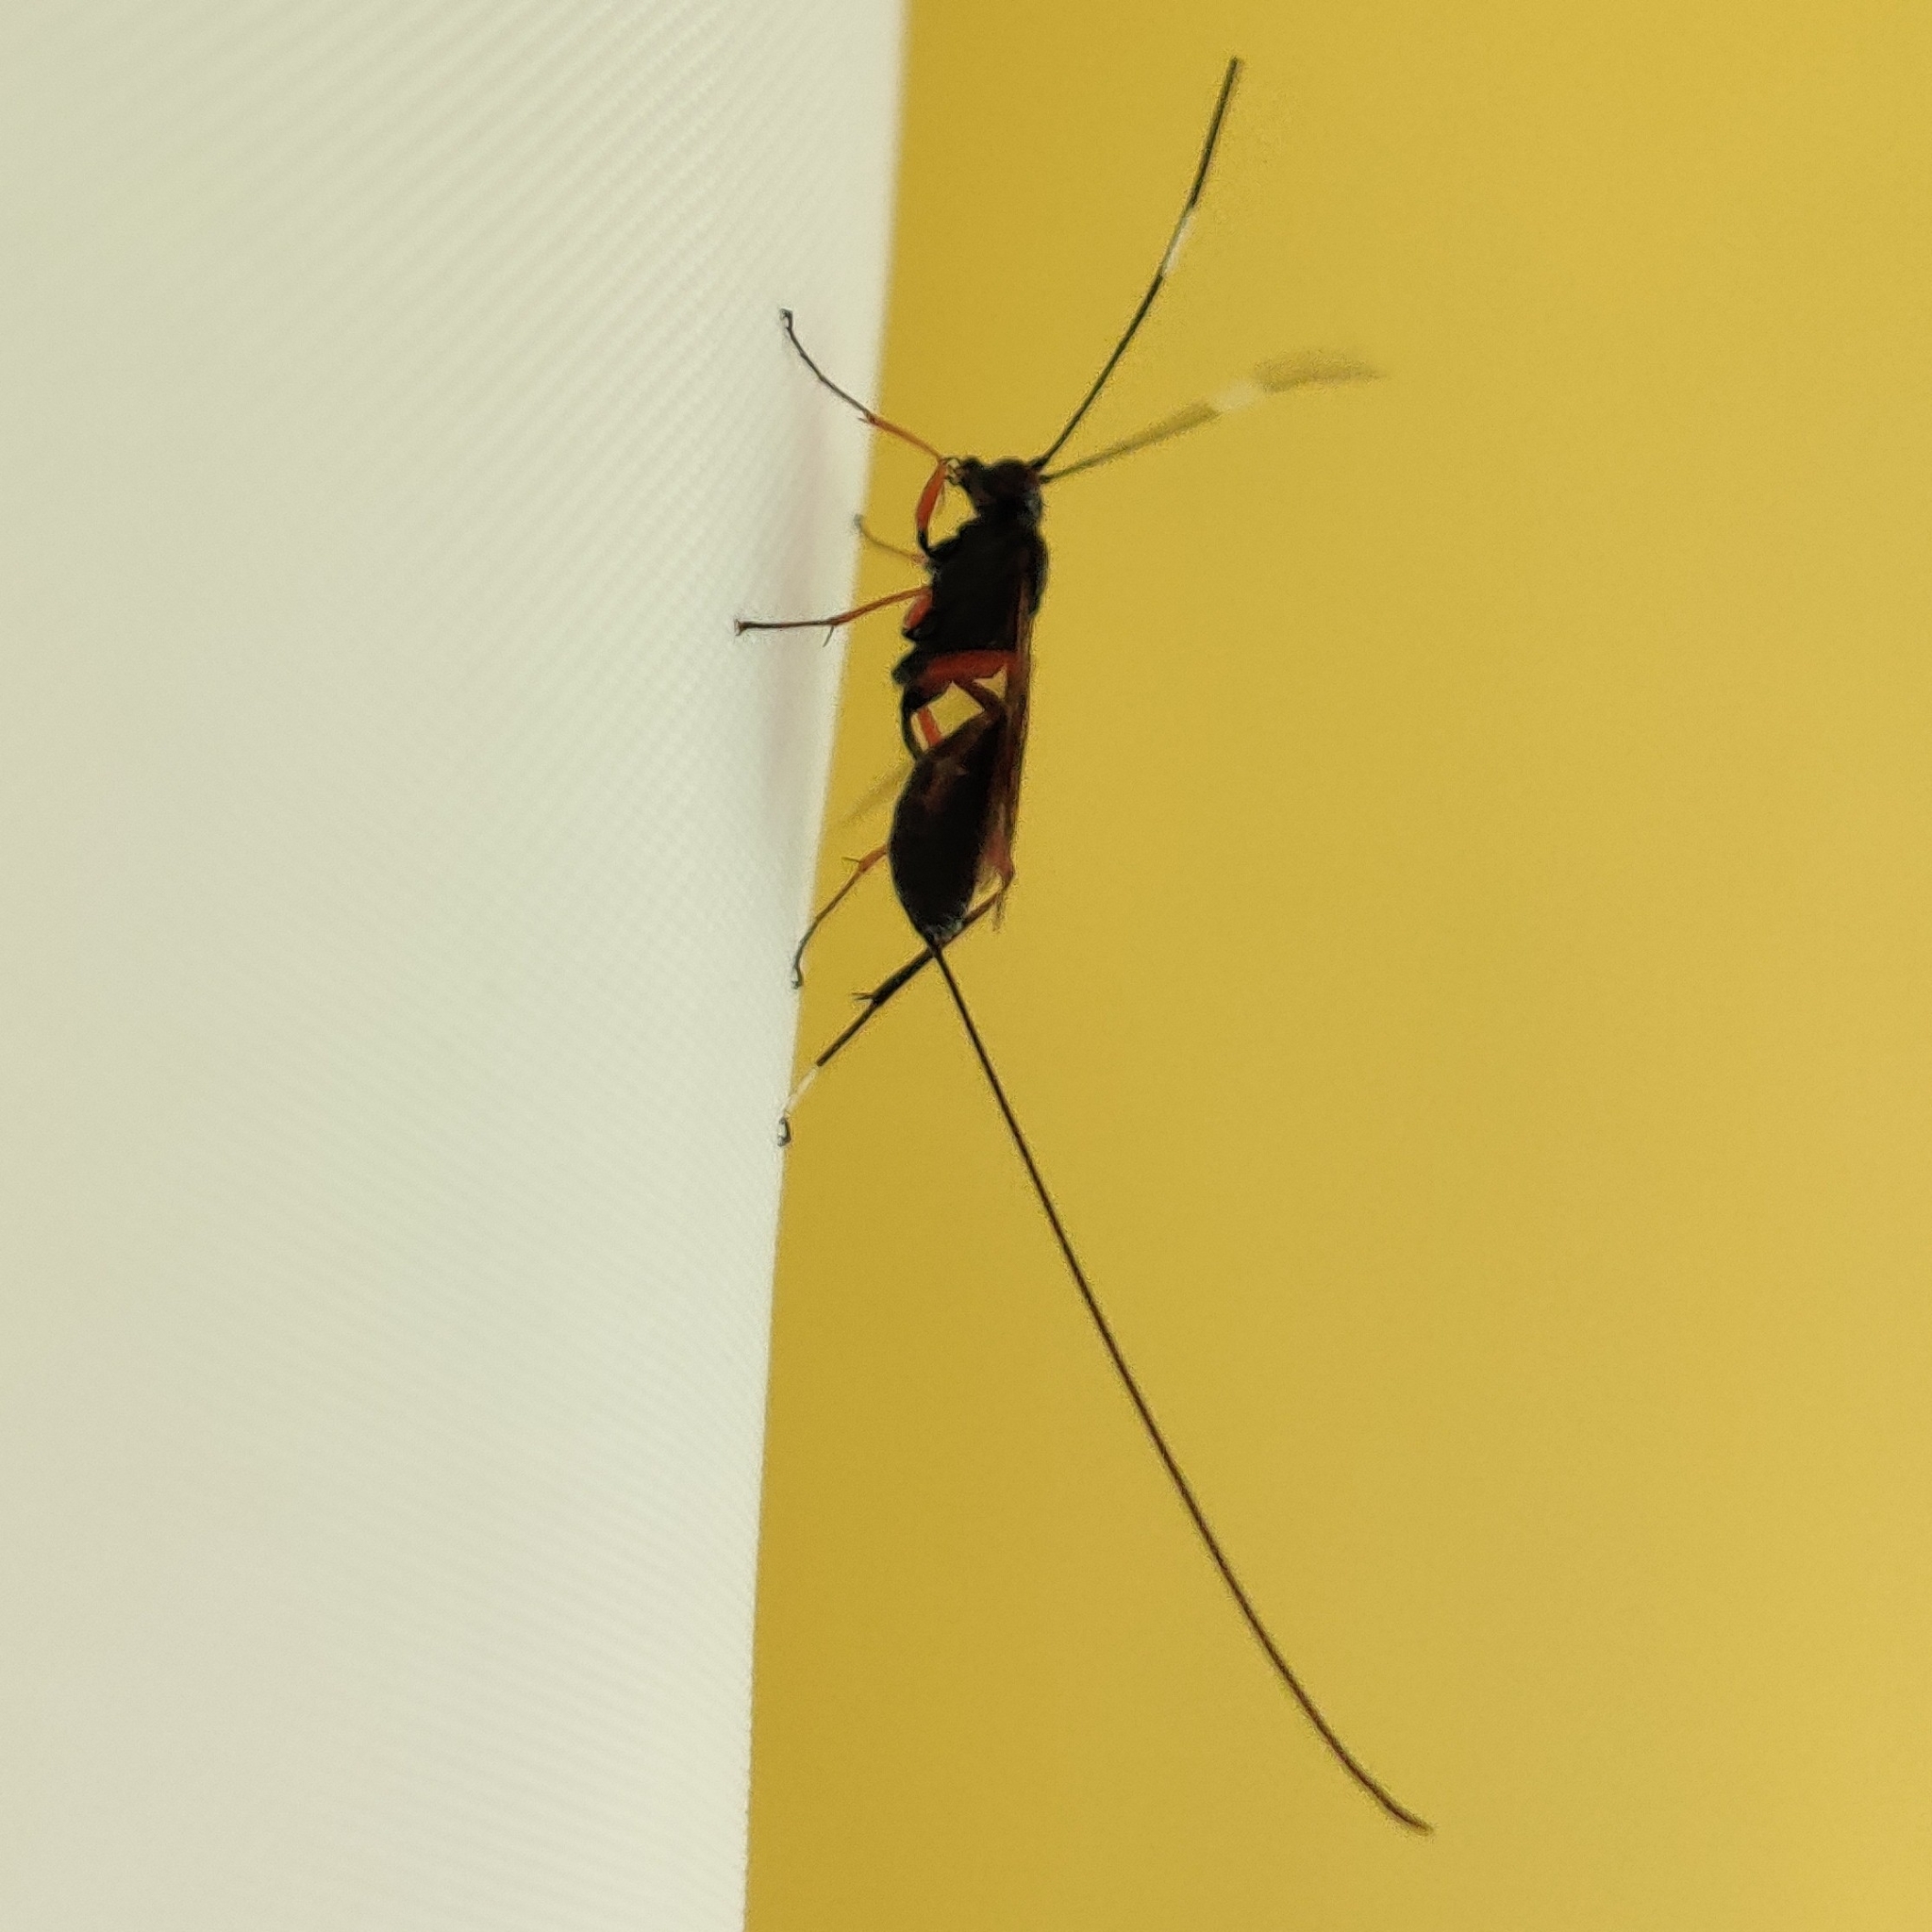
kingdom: Animalia
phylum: Arthropoda
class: Insecta
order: Hymenoptera
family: Ichneumonidae
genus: Stenarella
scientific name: Stenarella domator
